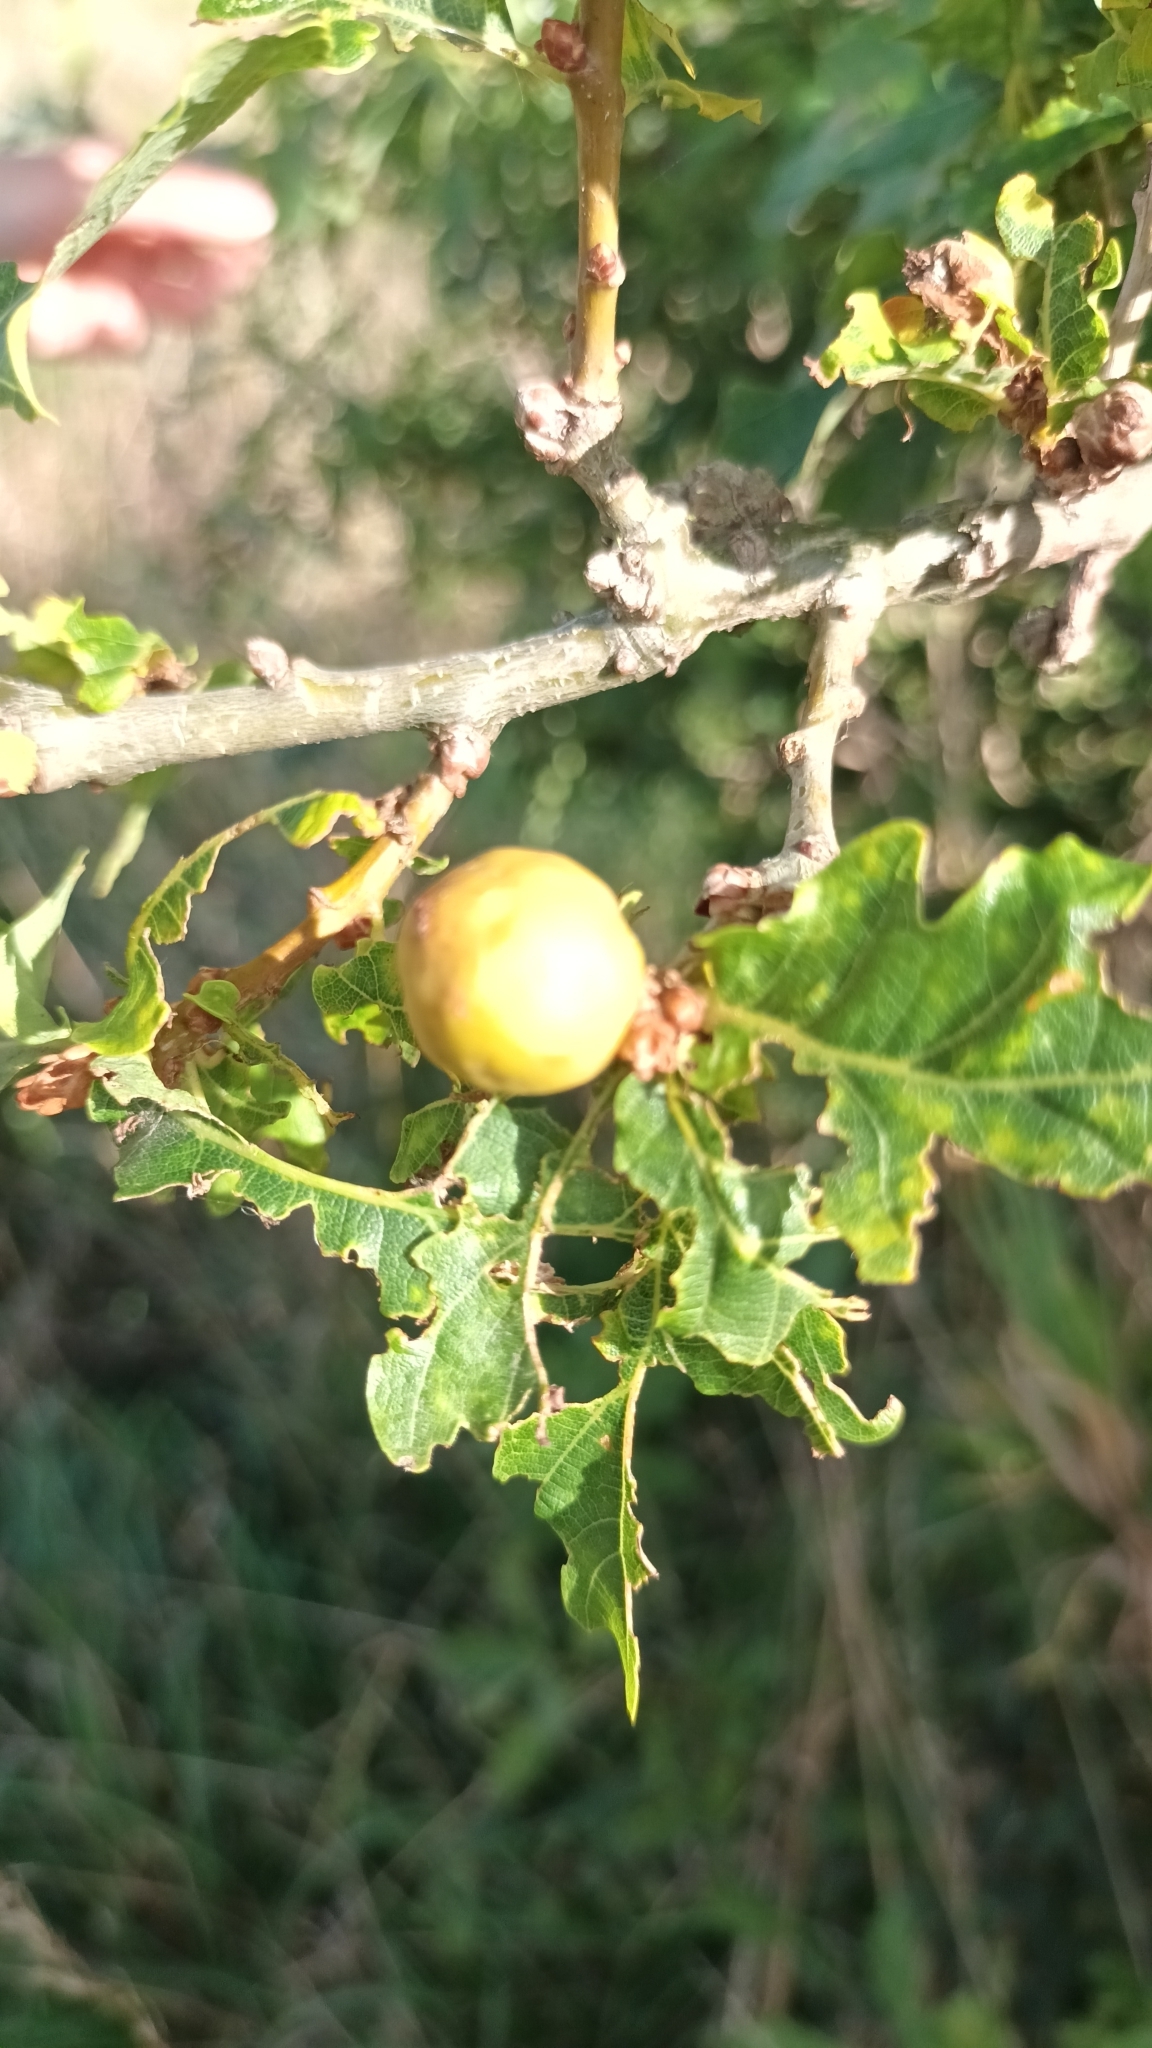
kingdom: Animalia
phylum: Arthropoda
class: Insecta
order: Hymenoptera
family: Cynipidae
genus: Andricus
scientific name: Andricus kollari
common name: Marble gall
